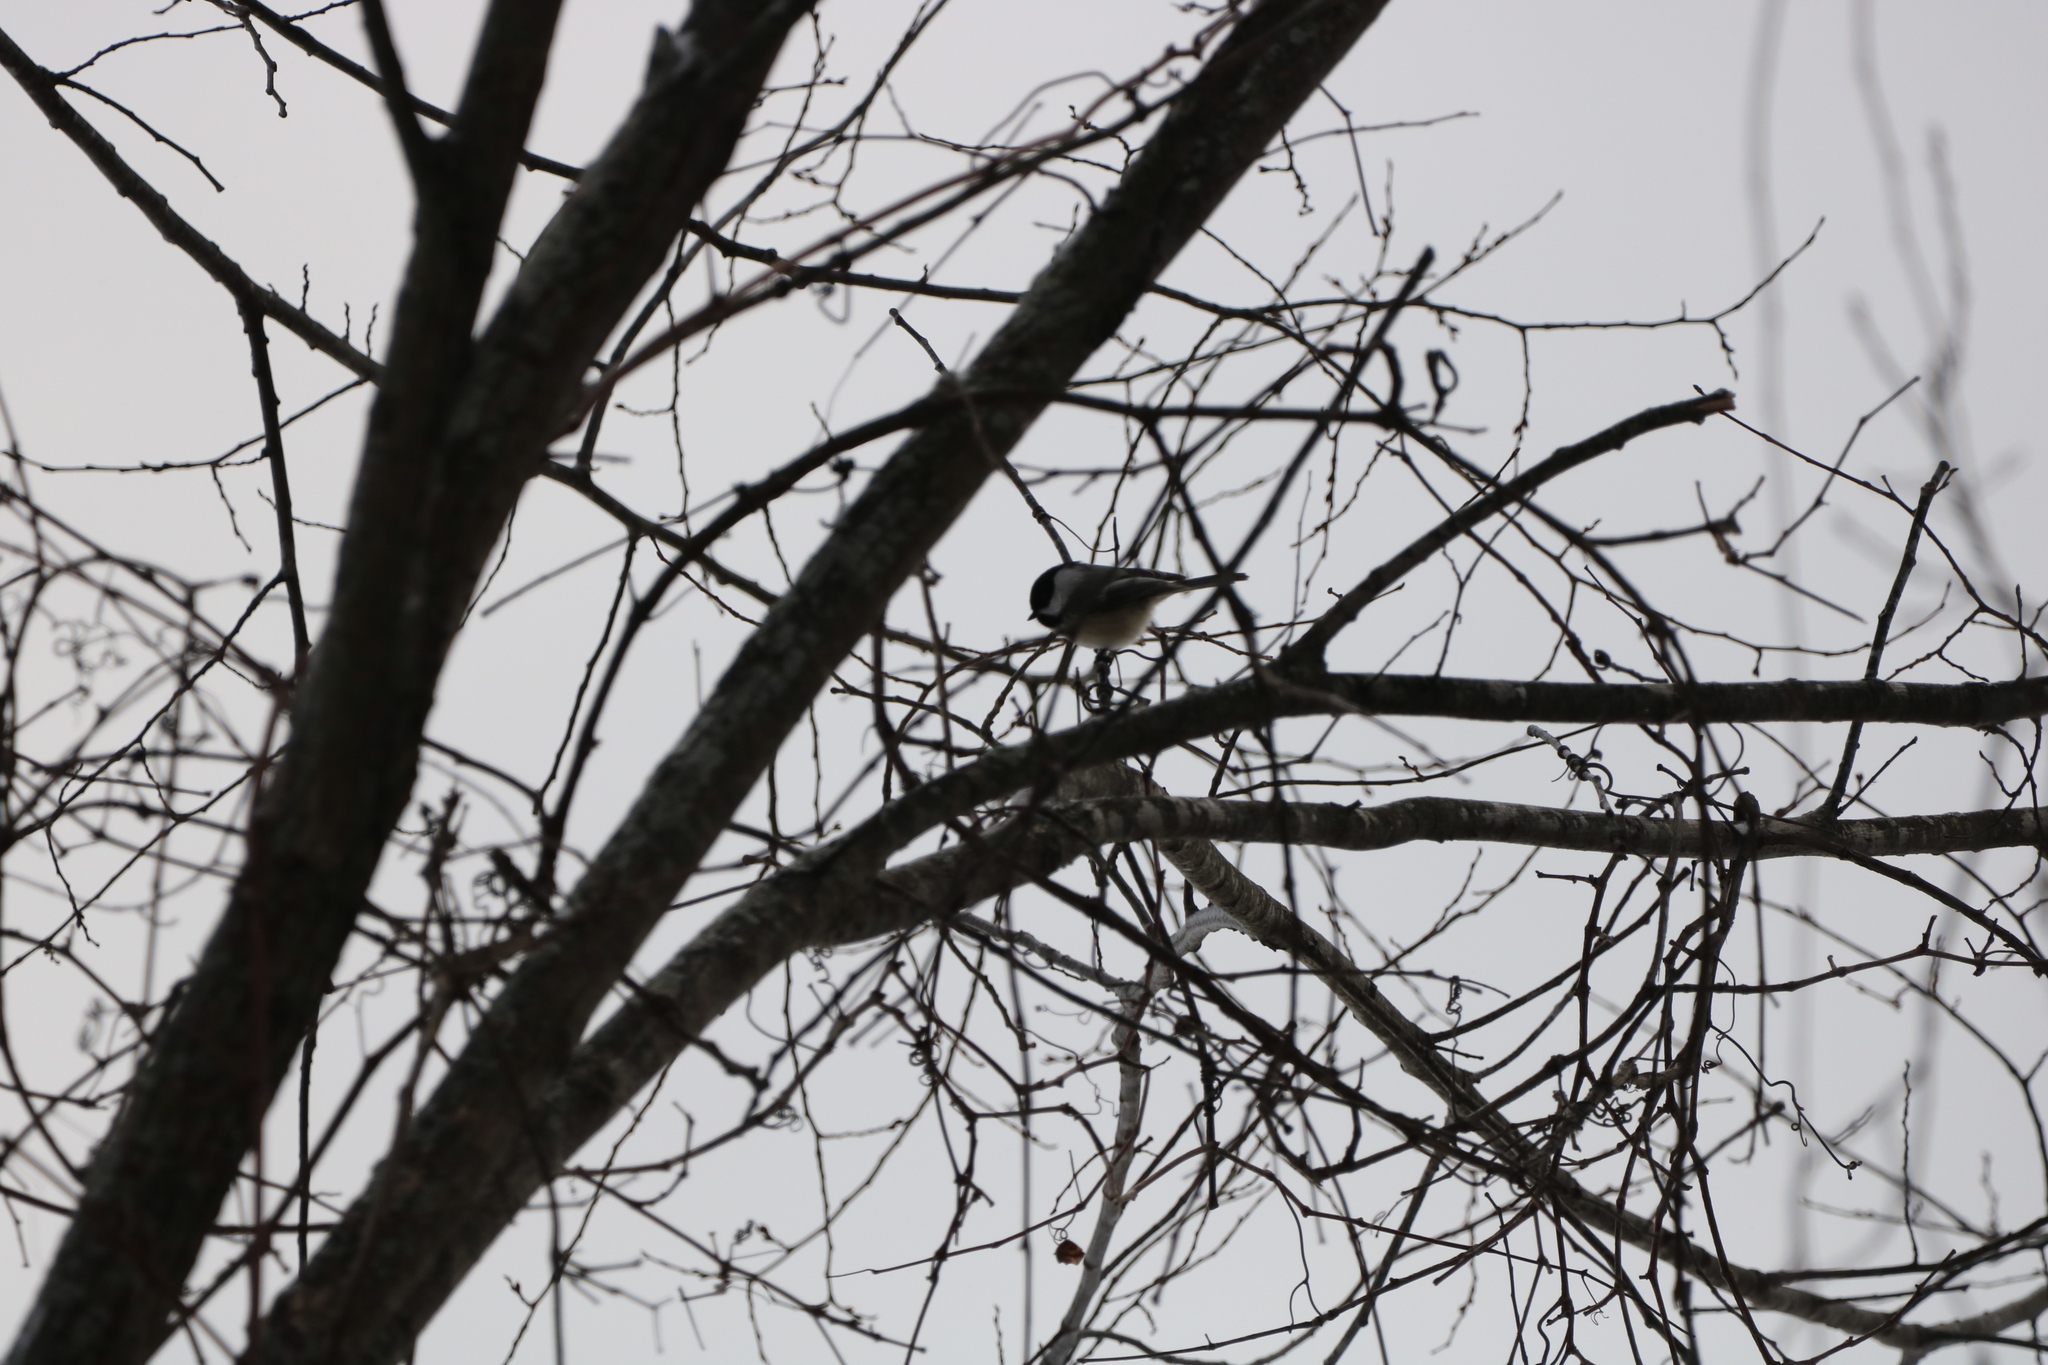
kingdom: Animalia
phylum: Chordata
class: Aves
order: Passeriformes
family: Paridae
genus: Poecile
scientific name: Poecile atricapillus
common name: Black-capped chickadee
